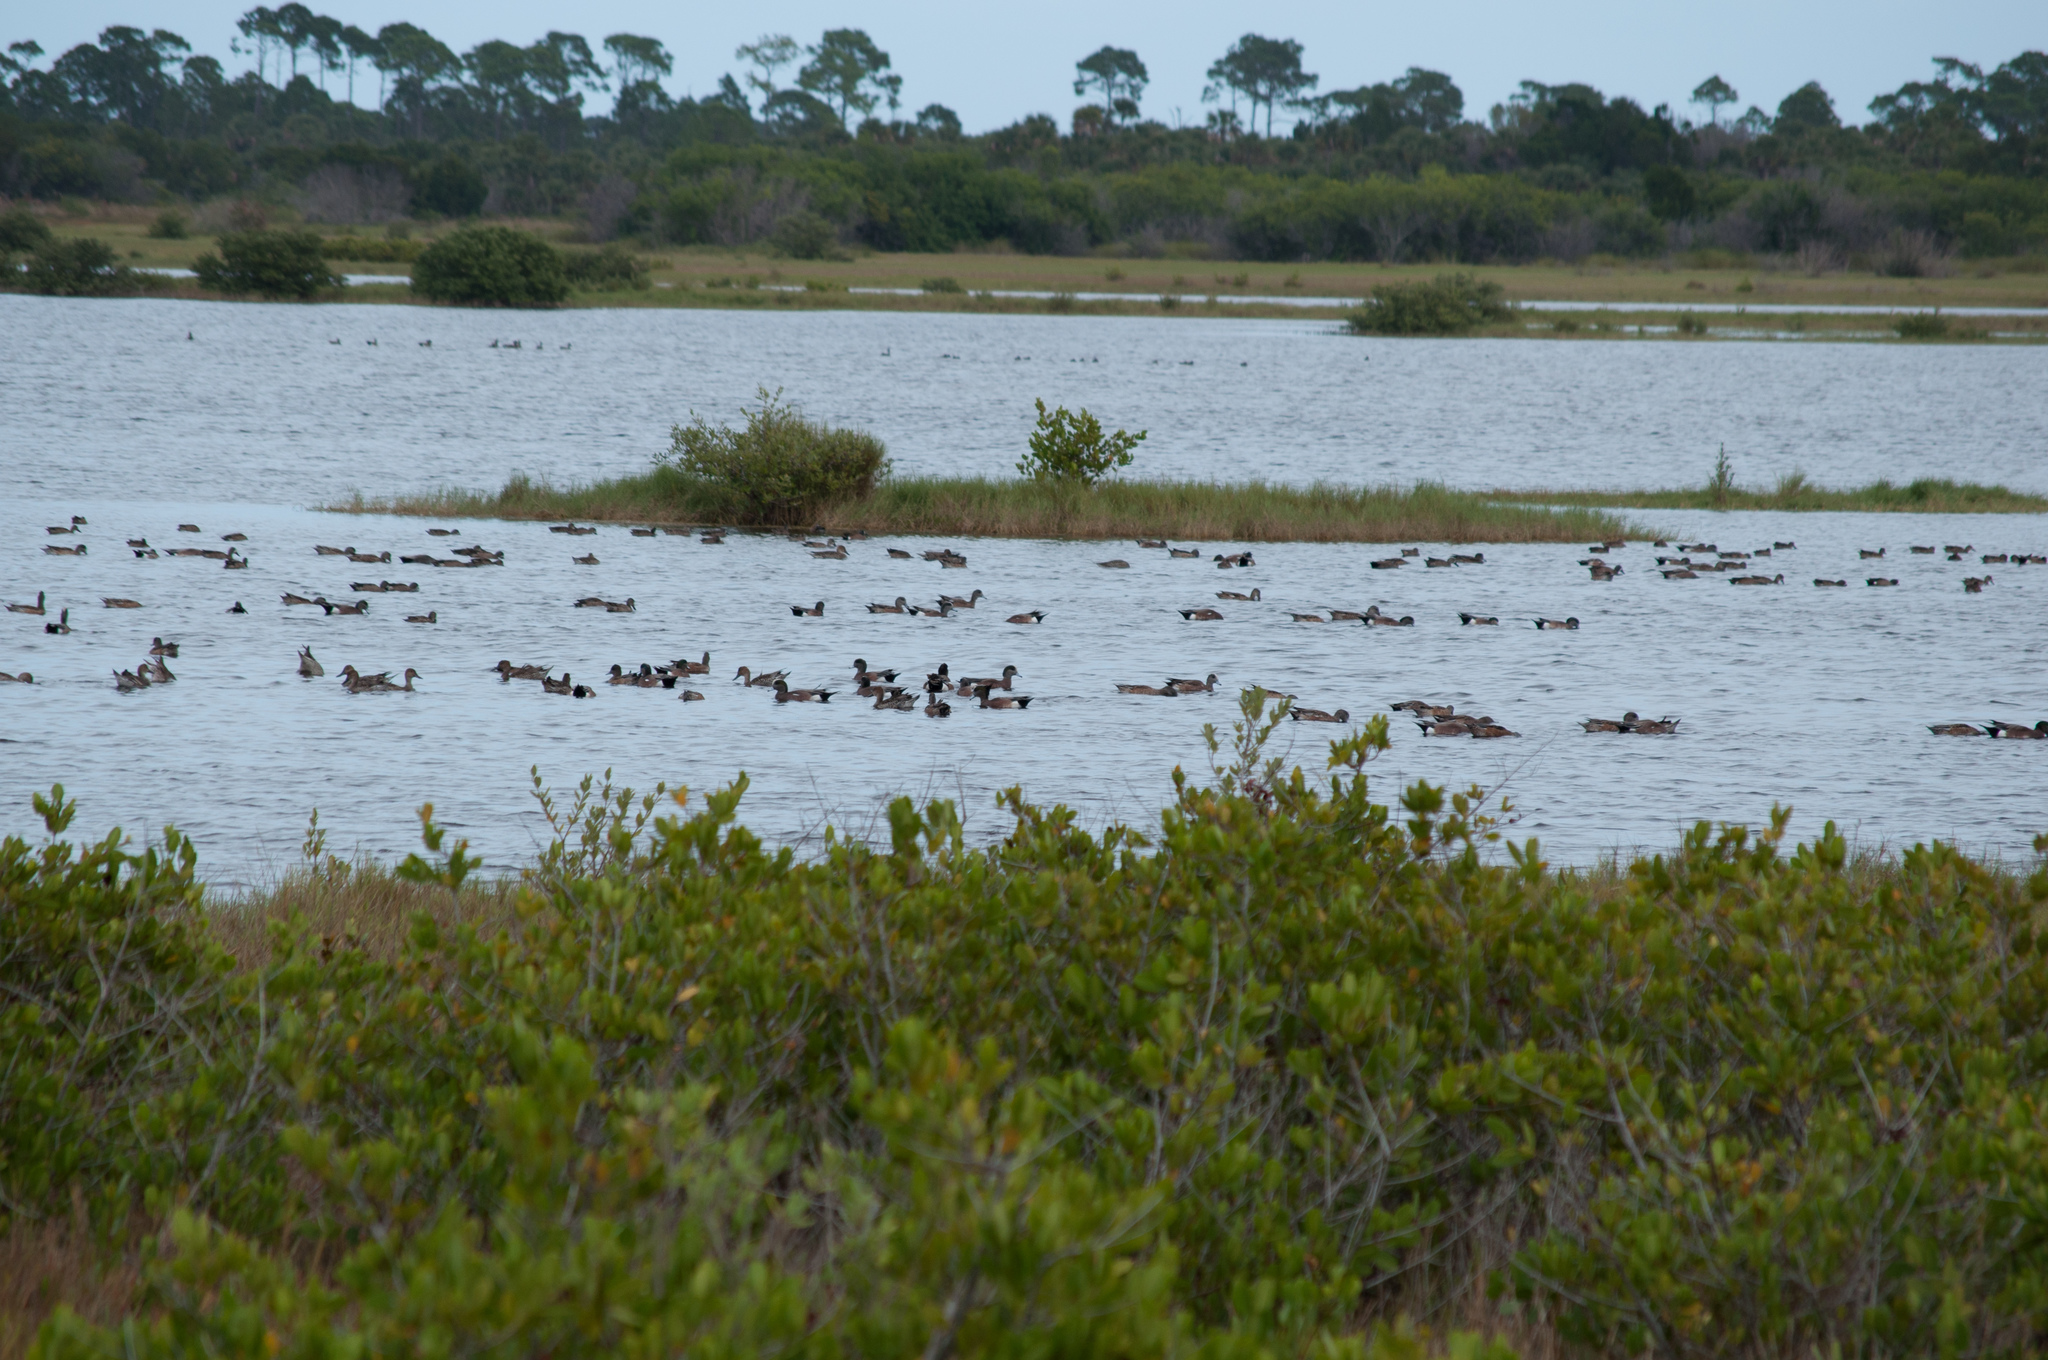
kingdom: Animalia
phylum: Chordata
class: Aves
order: Anseriformes
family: Anatidae
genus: Mareca
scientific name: Mareca americana
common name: American wigeon
